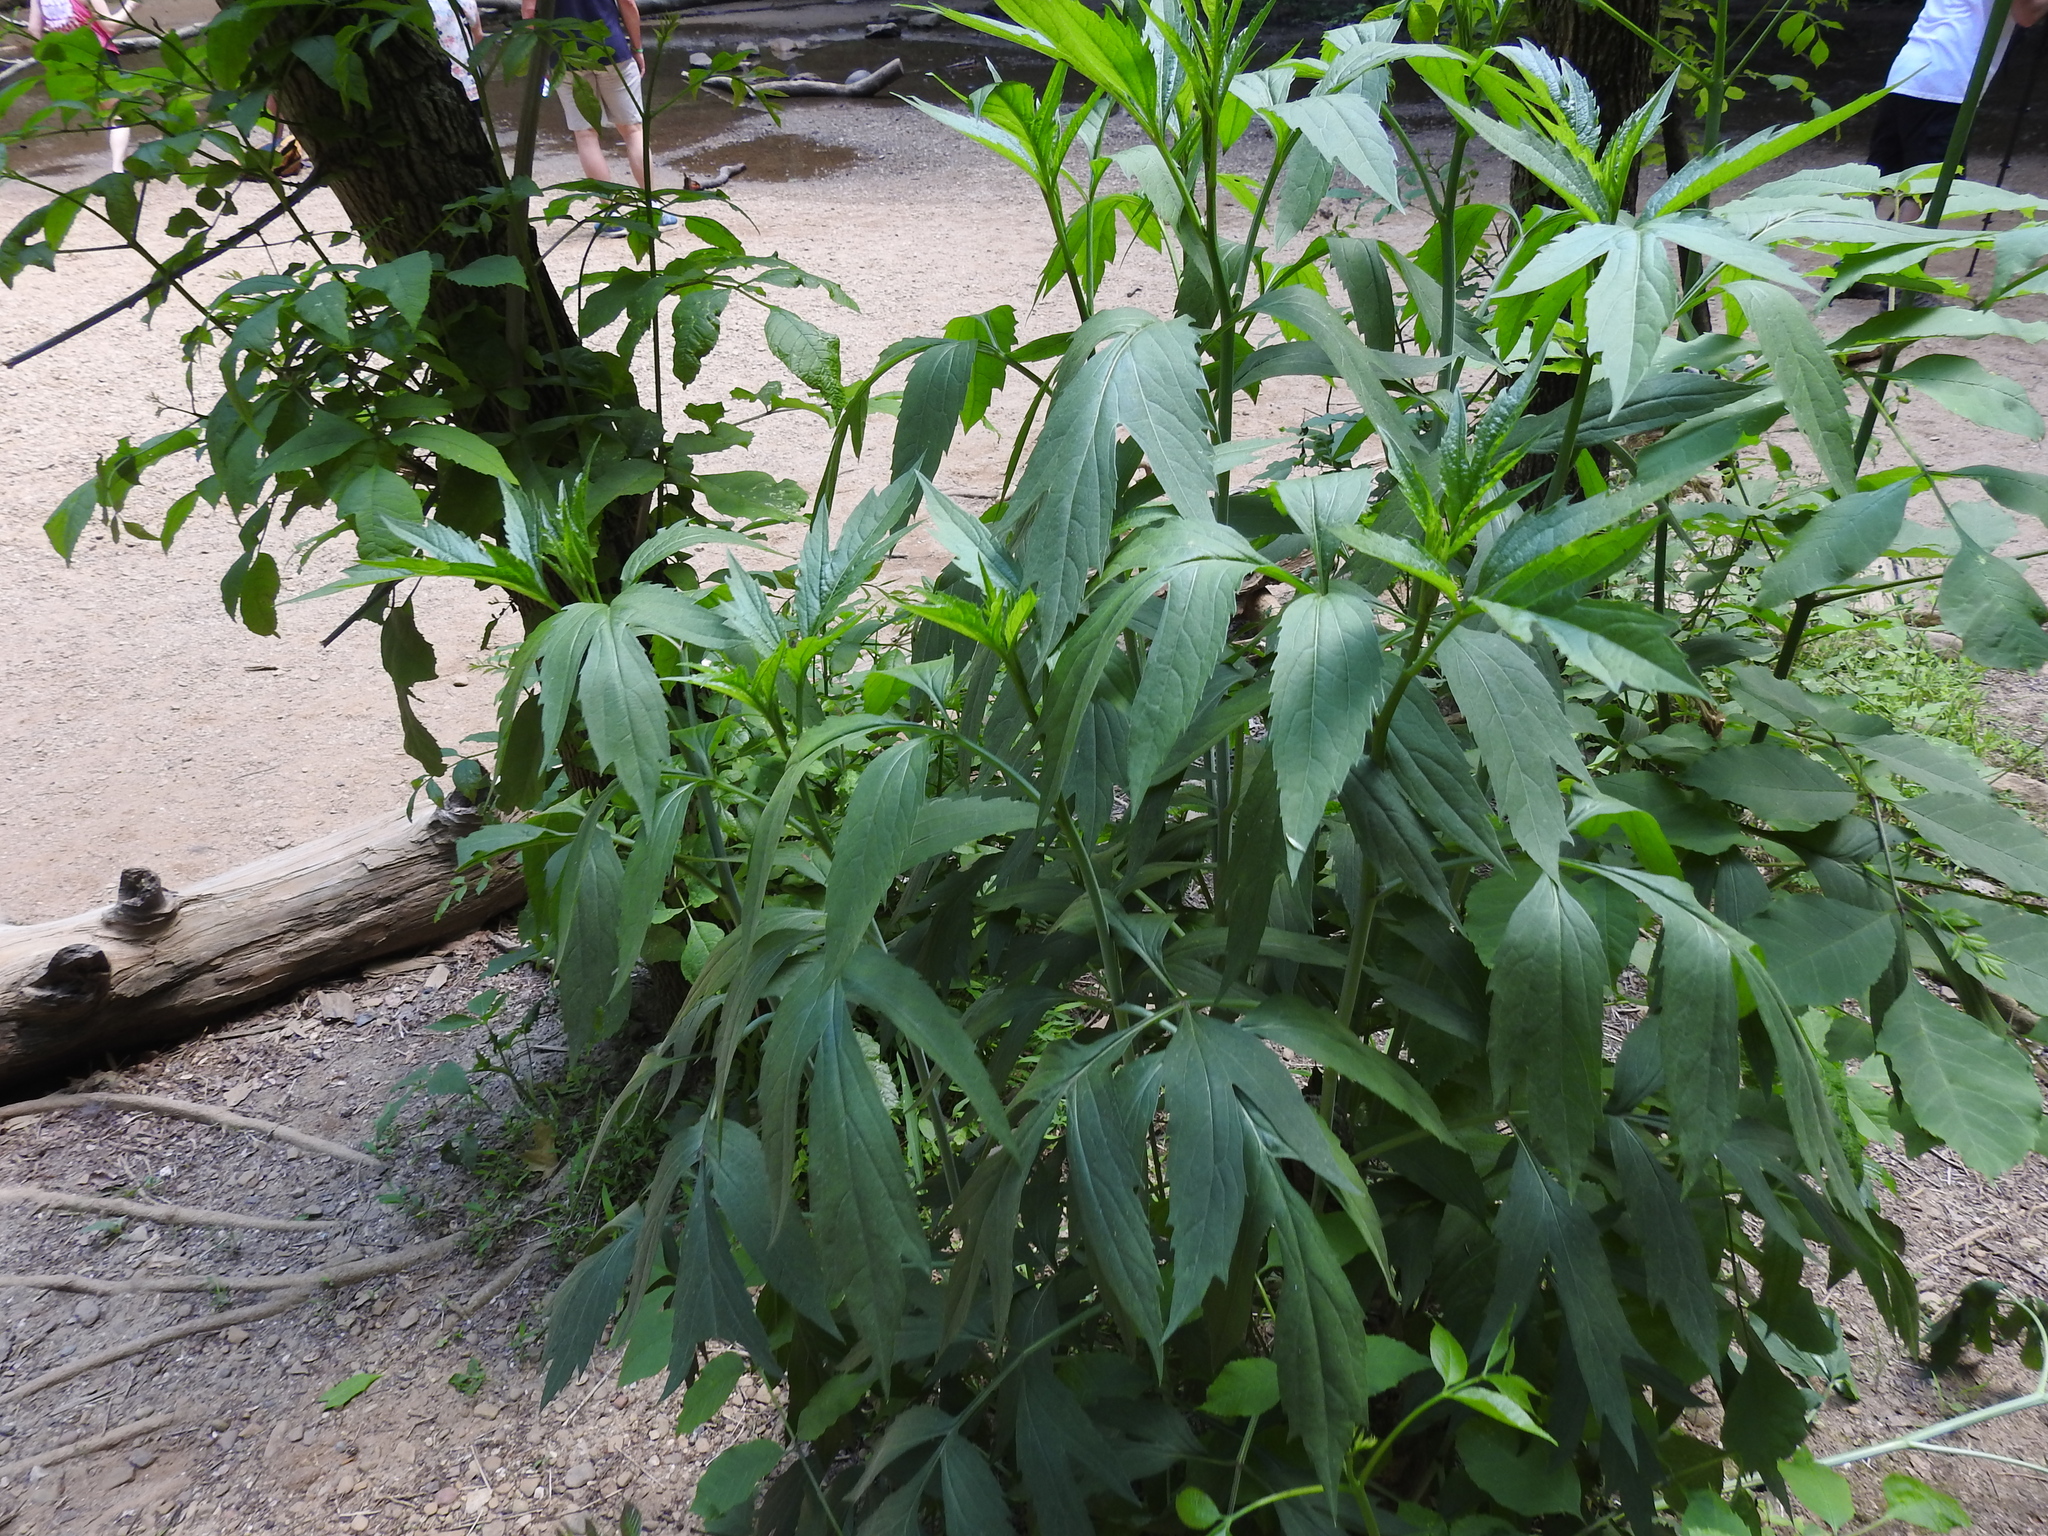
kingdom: Plantae
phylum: Tracheophyta
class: Magnoliopsida
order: Asterales
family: Asteraceae
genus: Rudbeckia
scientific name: Rudbeckia laciniata
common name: Coneflower
